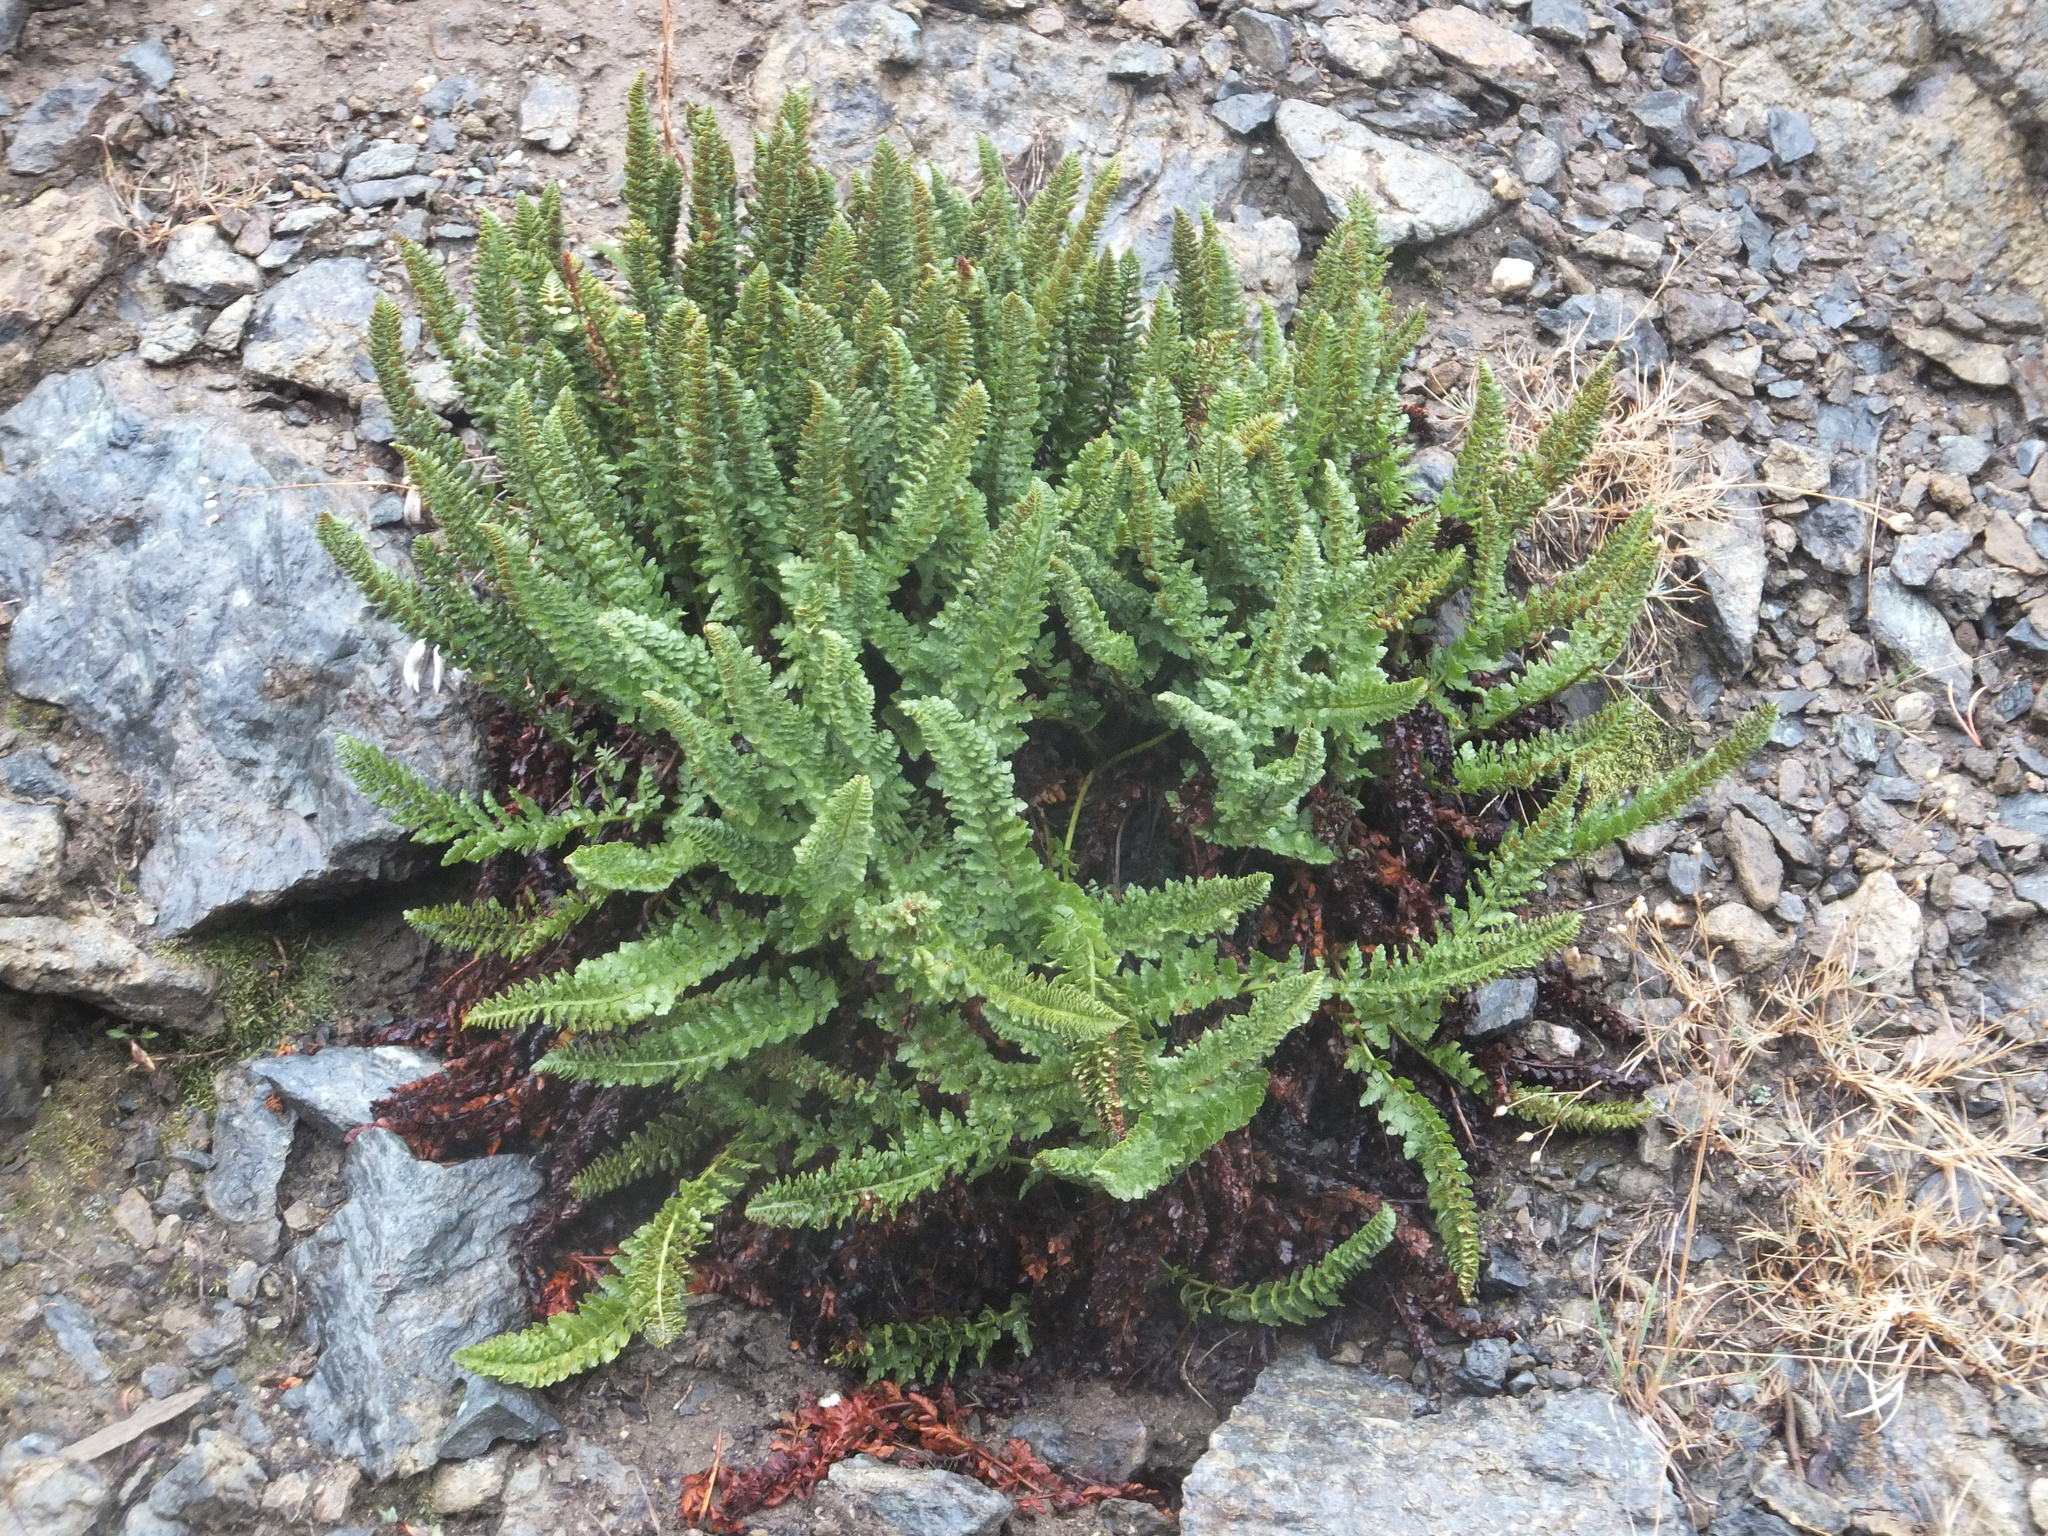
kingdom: Plantae
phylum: Tracheophyta
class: Polypodiopsida
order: Polypodiales
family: Dryopteridaceae
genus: Polystichum
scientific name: Polystichum lemmonii
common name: Lemmon's holly fern
